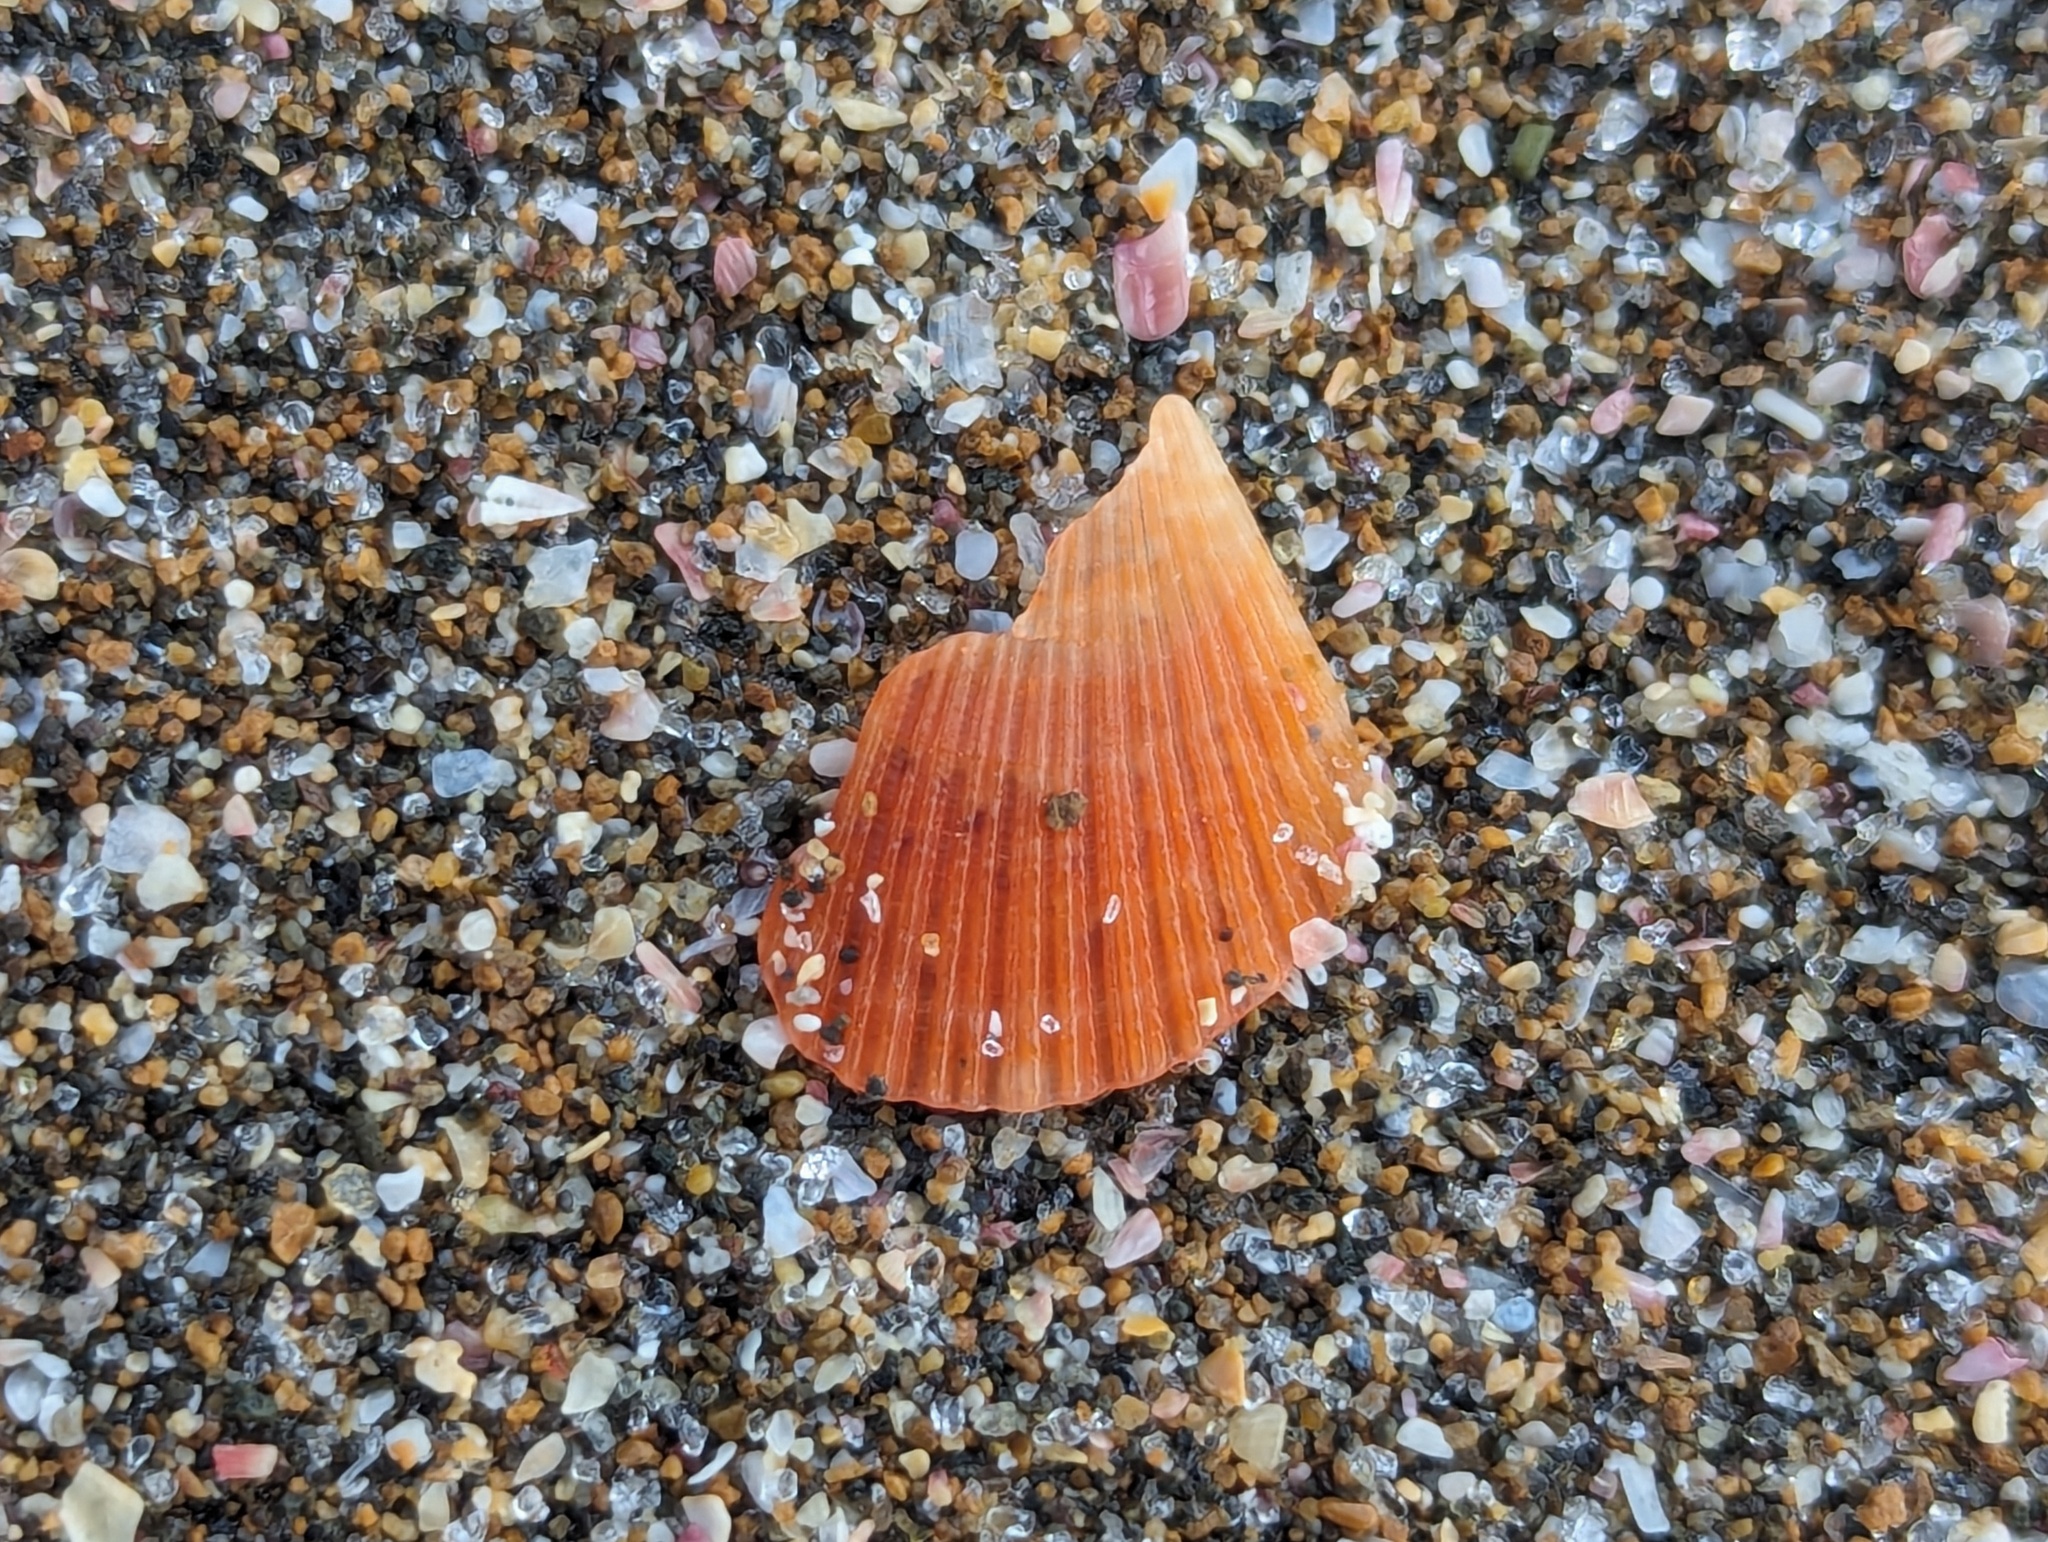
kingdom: Animalia
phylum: Mollusca
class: Bivalvia
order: Pectinida
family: Pectinidae
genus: Talochlamys
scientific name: Talochlamys zelandiae
